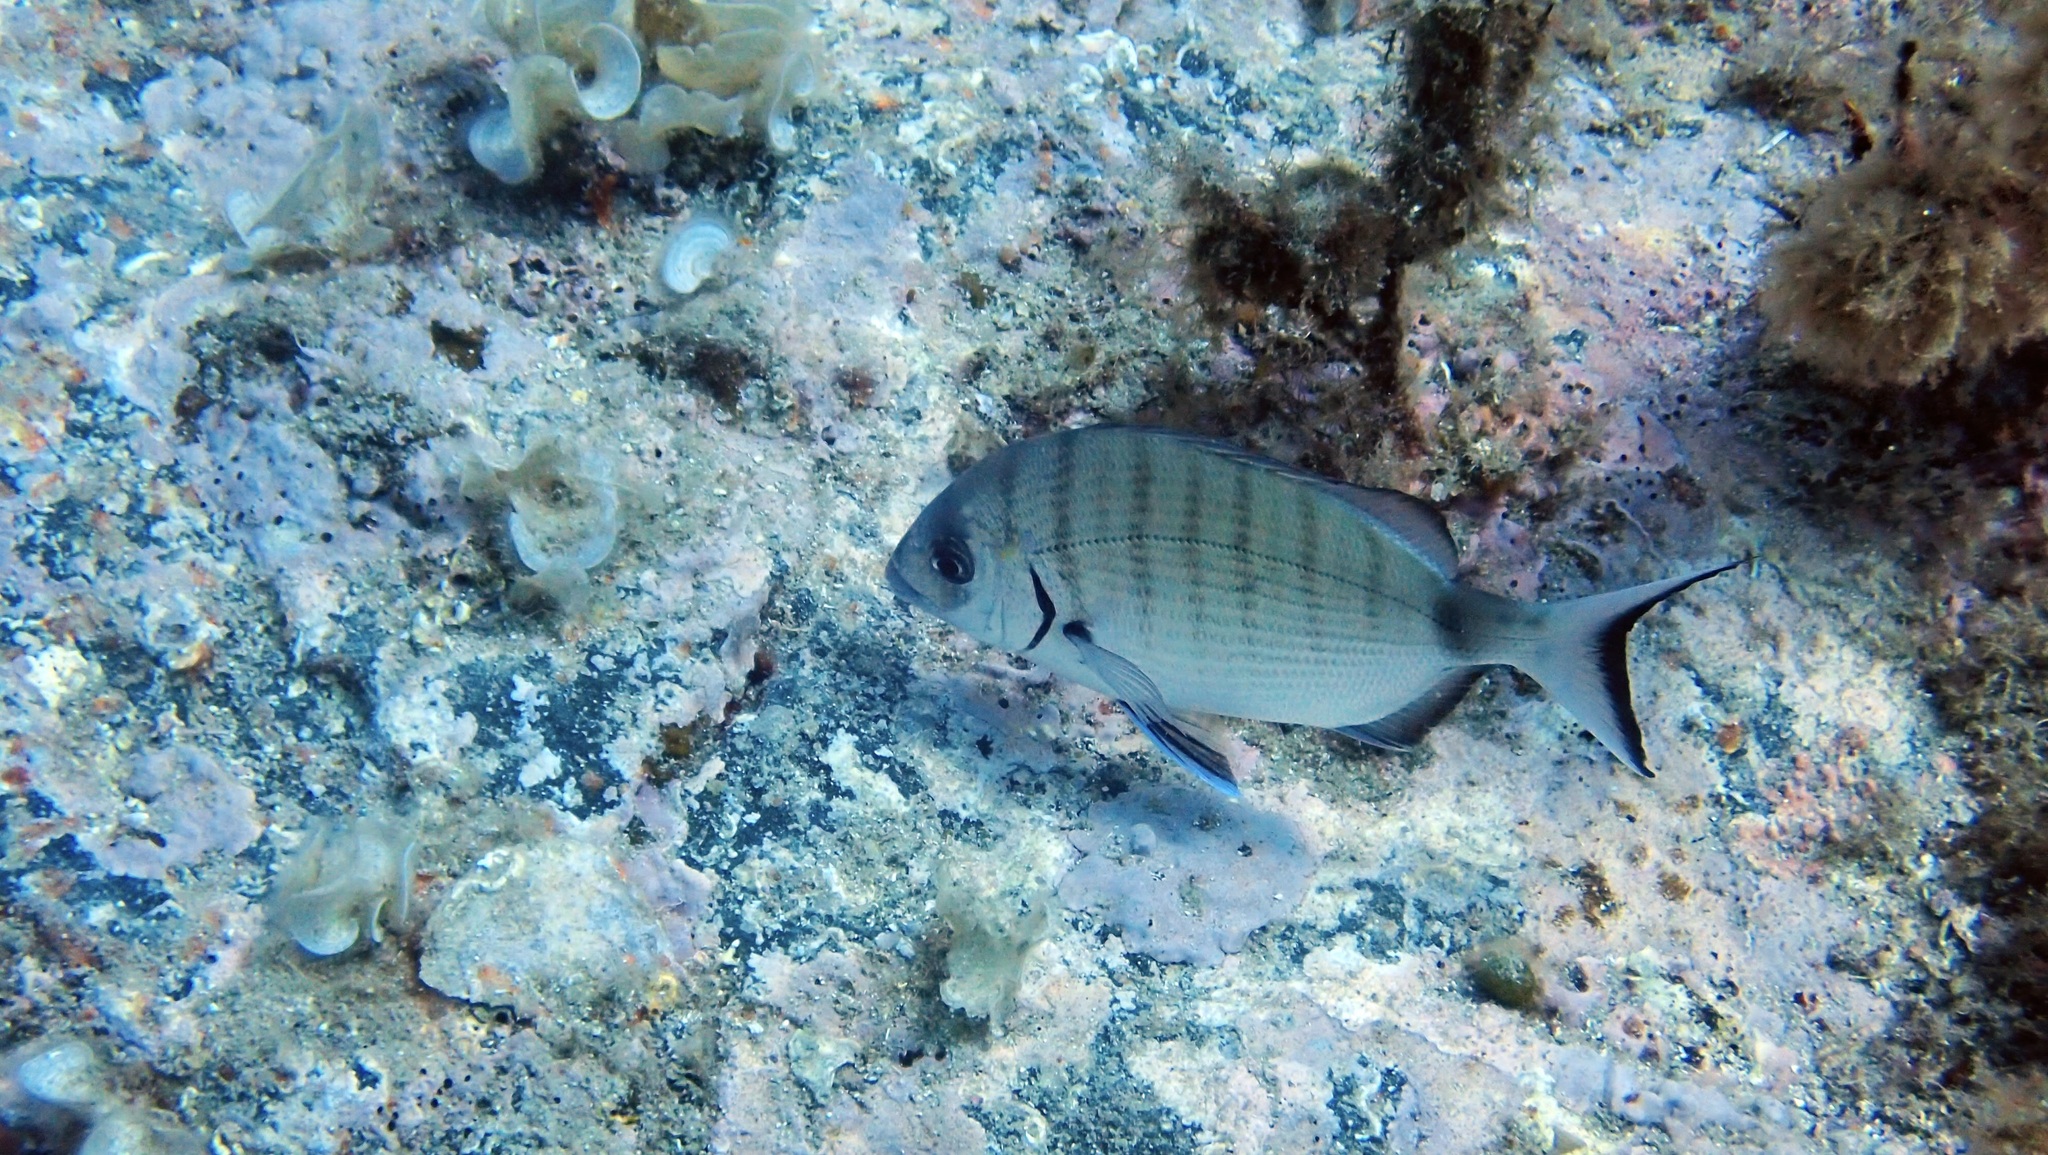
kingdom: Animalia
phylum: Chordata
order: Perciformes
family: Sparidae
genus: Diplodus
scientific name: Diplodus sargus
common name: White seabream
